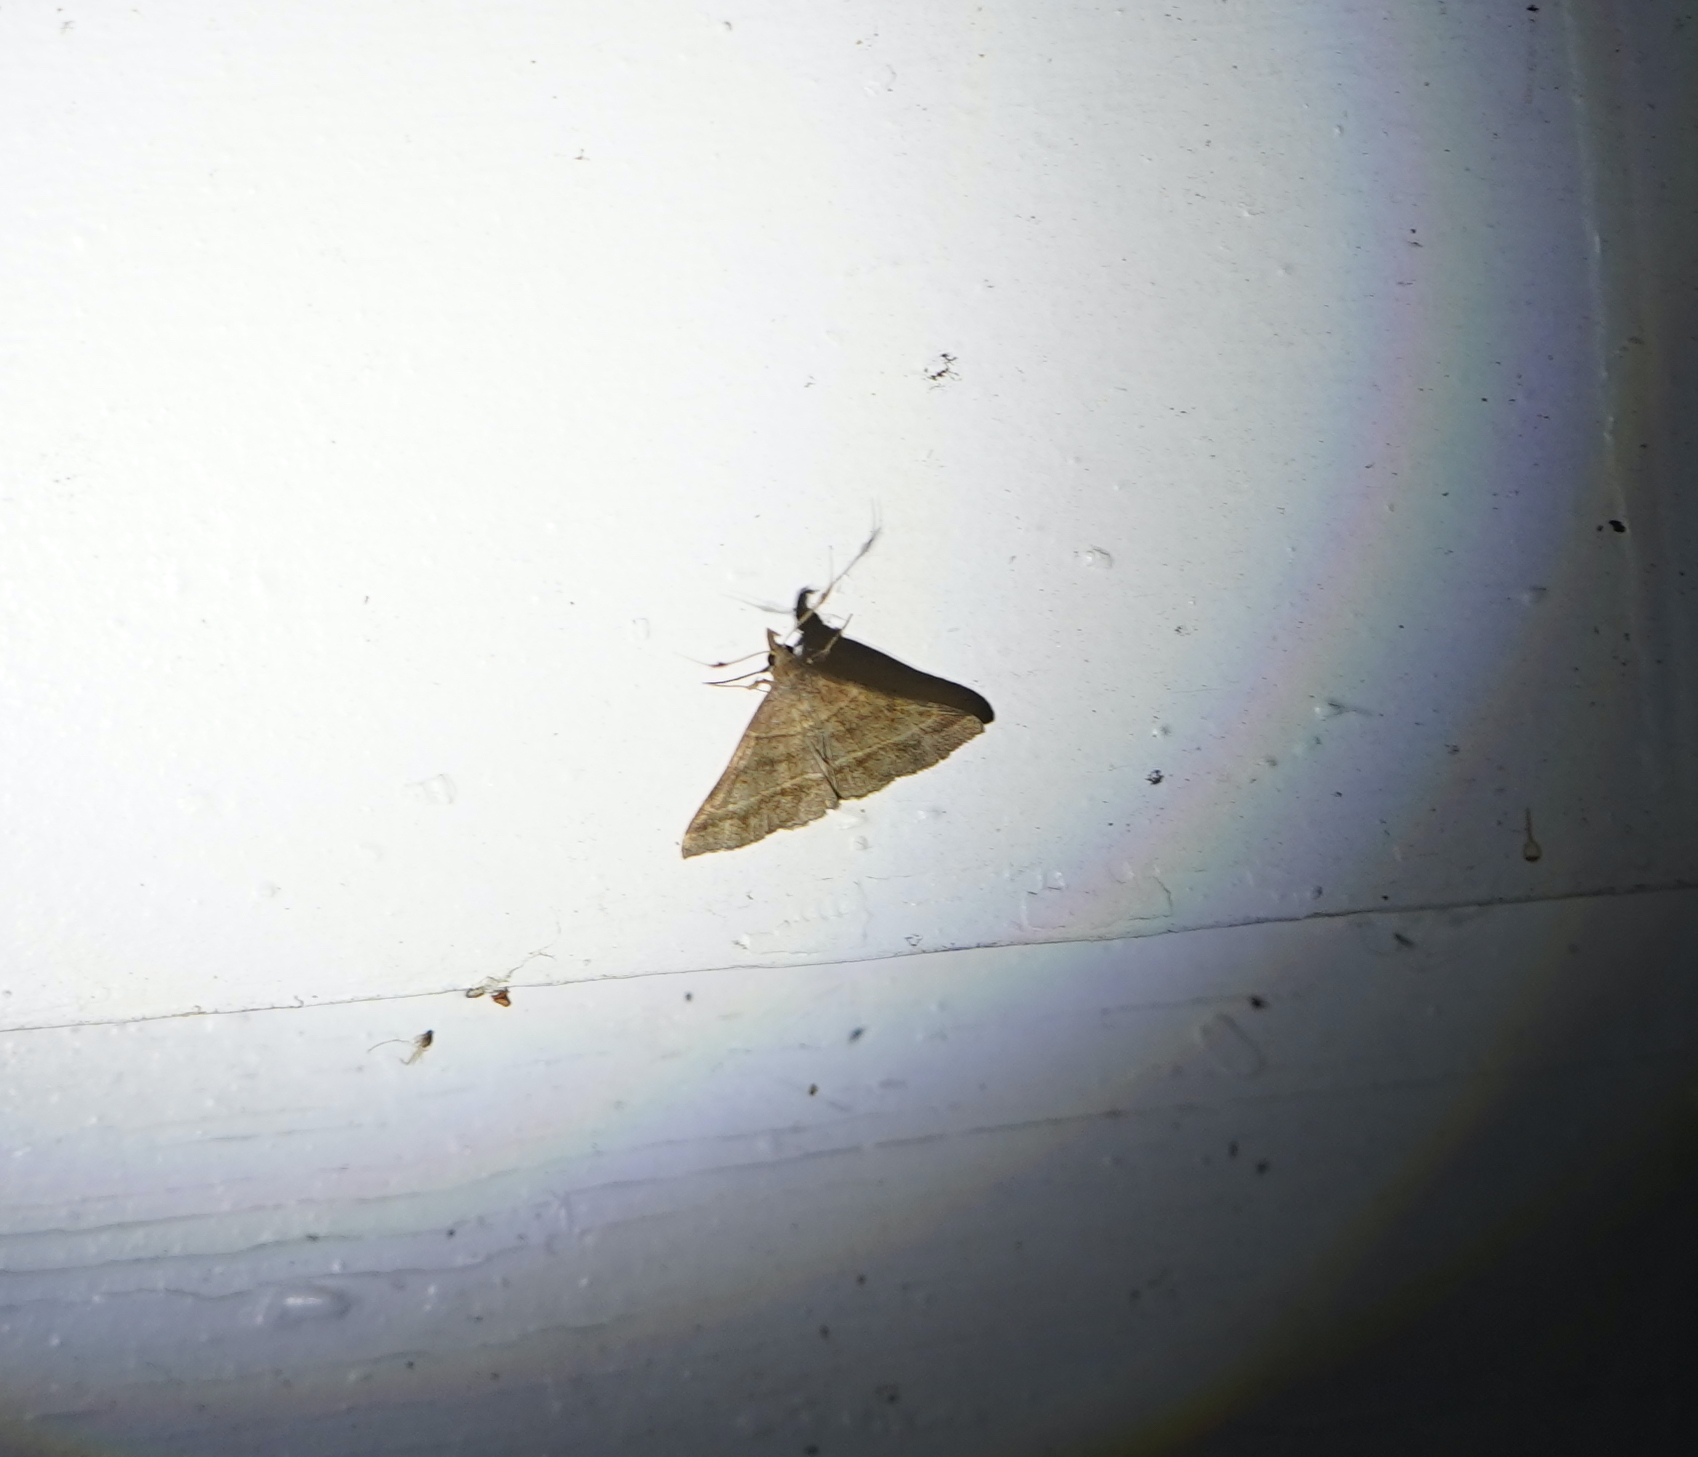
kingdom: Animalia
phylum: Arthropoda
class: Insecta
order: Lepidoptera
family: Erebidae
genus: Renia
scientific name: Renia flavipunctalis
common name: Yellow-spotted renia moth
